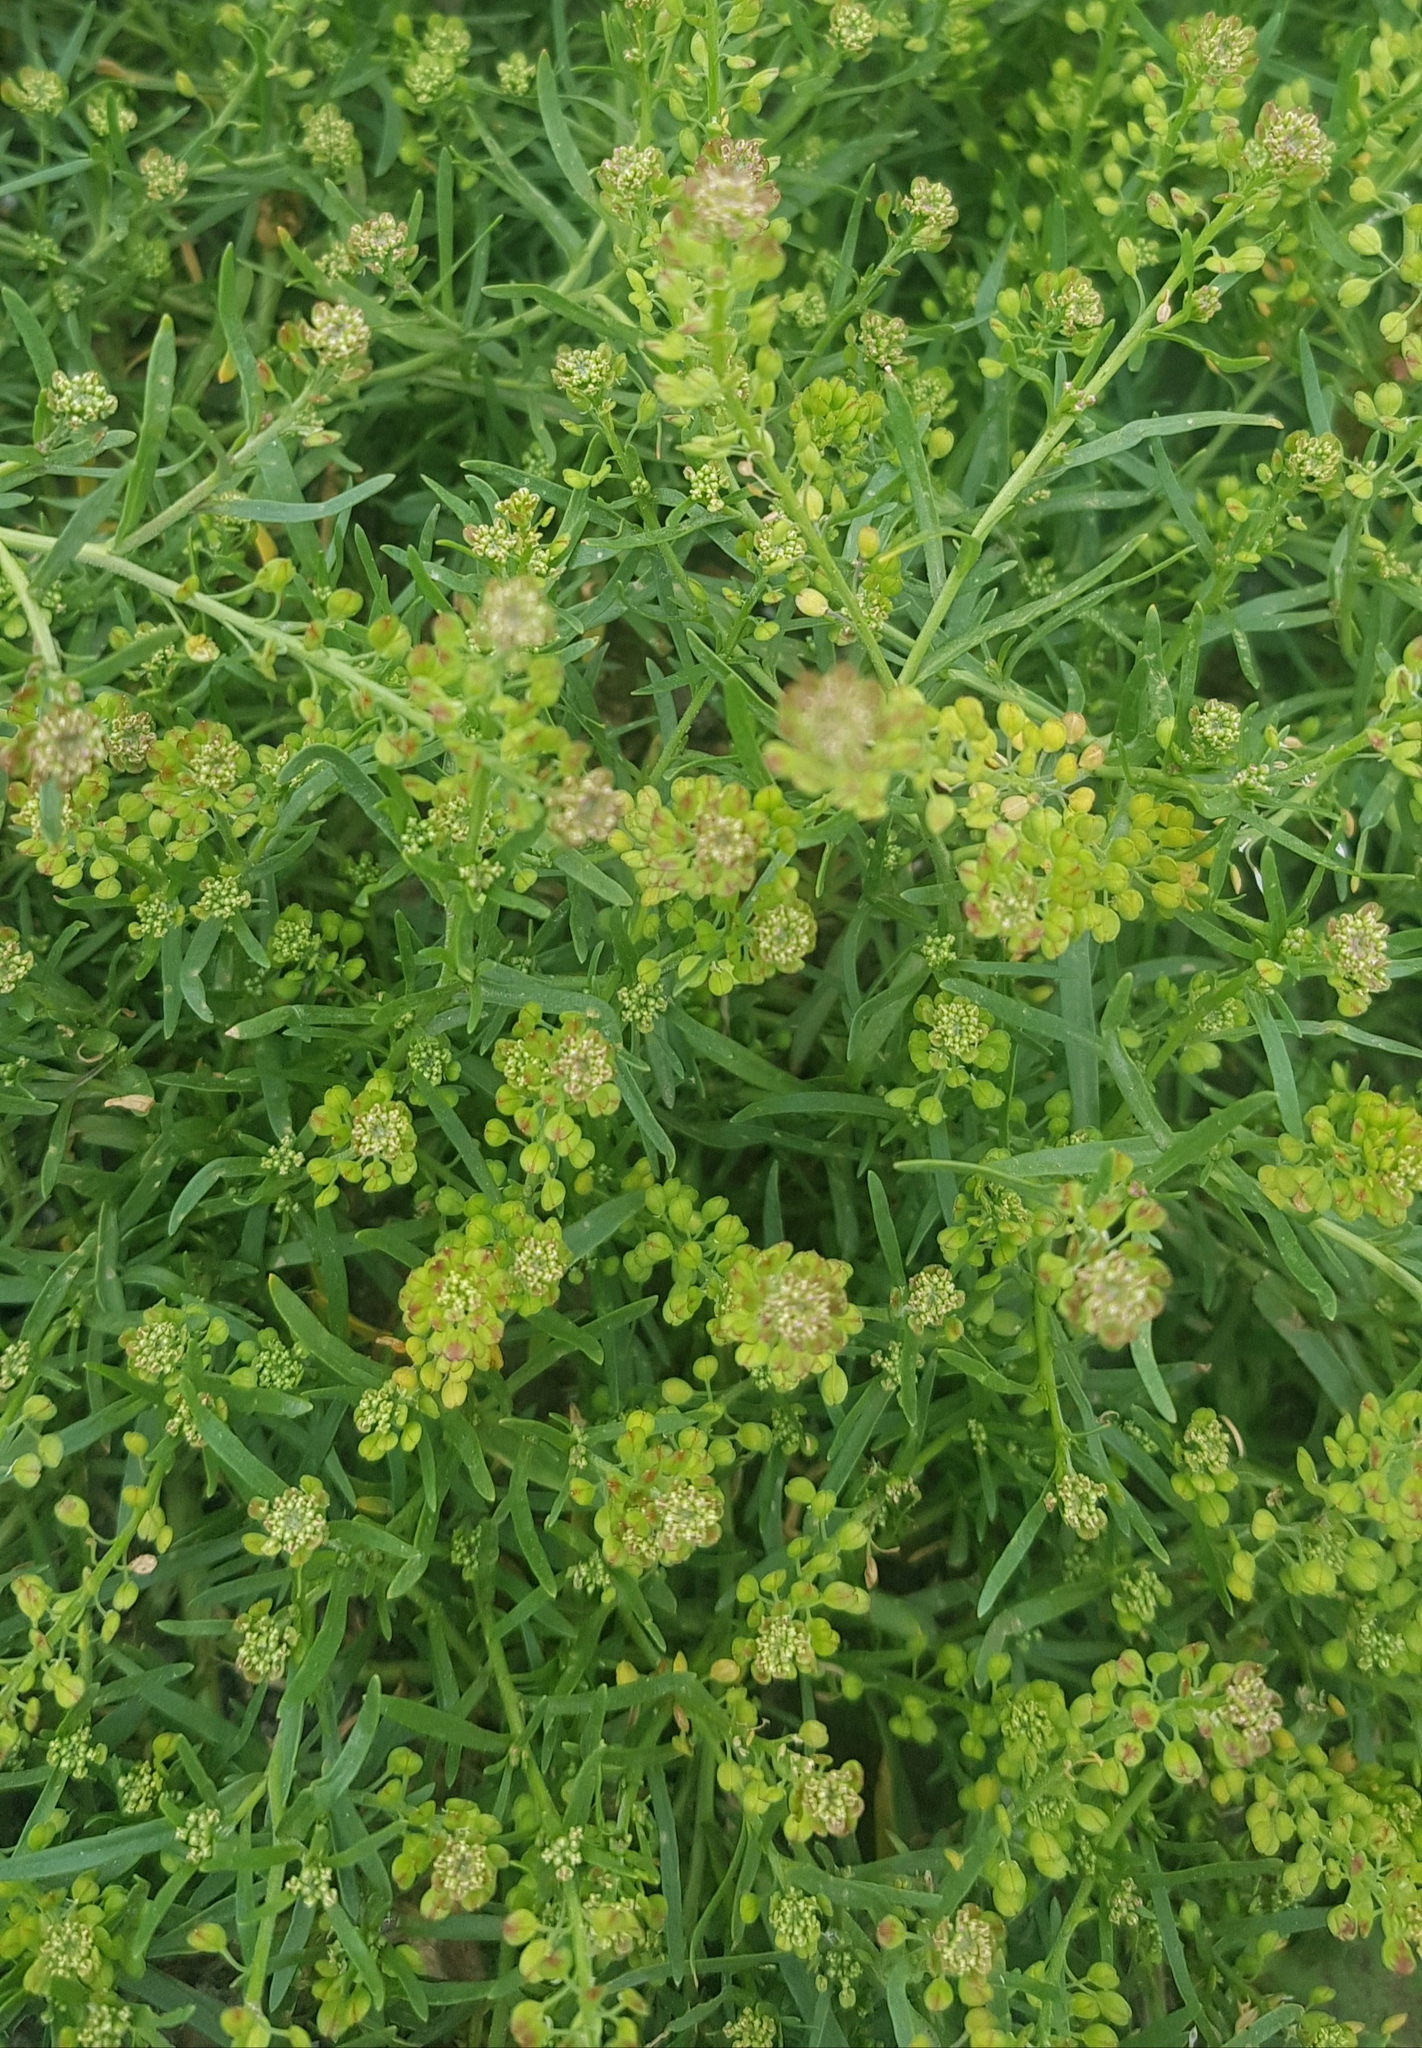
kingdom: Plantae
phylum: Tracheophyta
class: Magnoliopsida
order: Brassicales
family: Brassicaceae
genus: Lepidium
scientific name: Lepidium ruderale
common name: Narrow-leaved pepperwort
